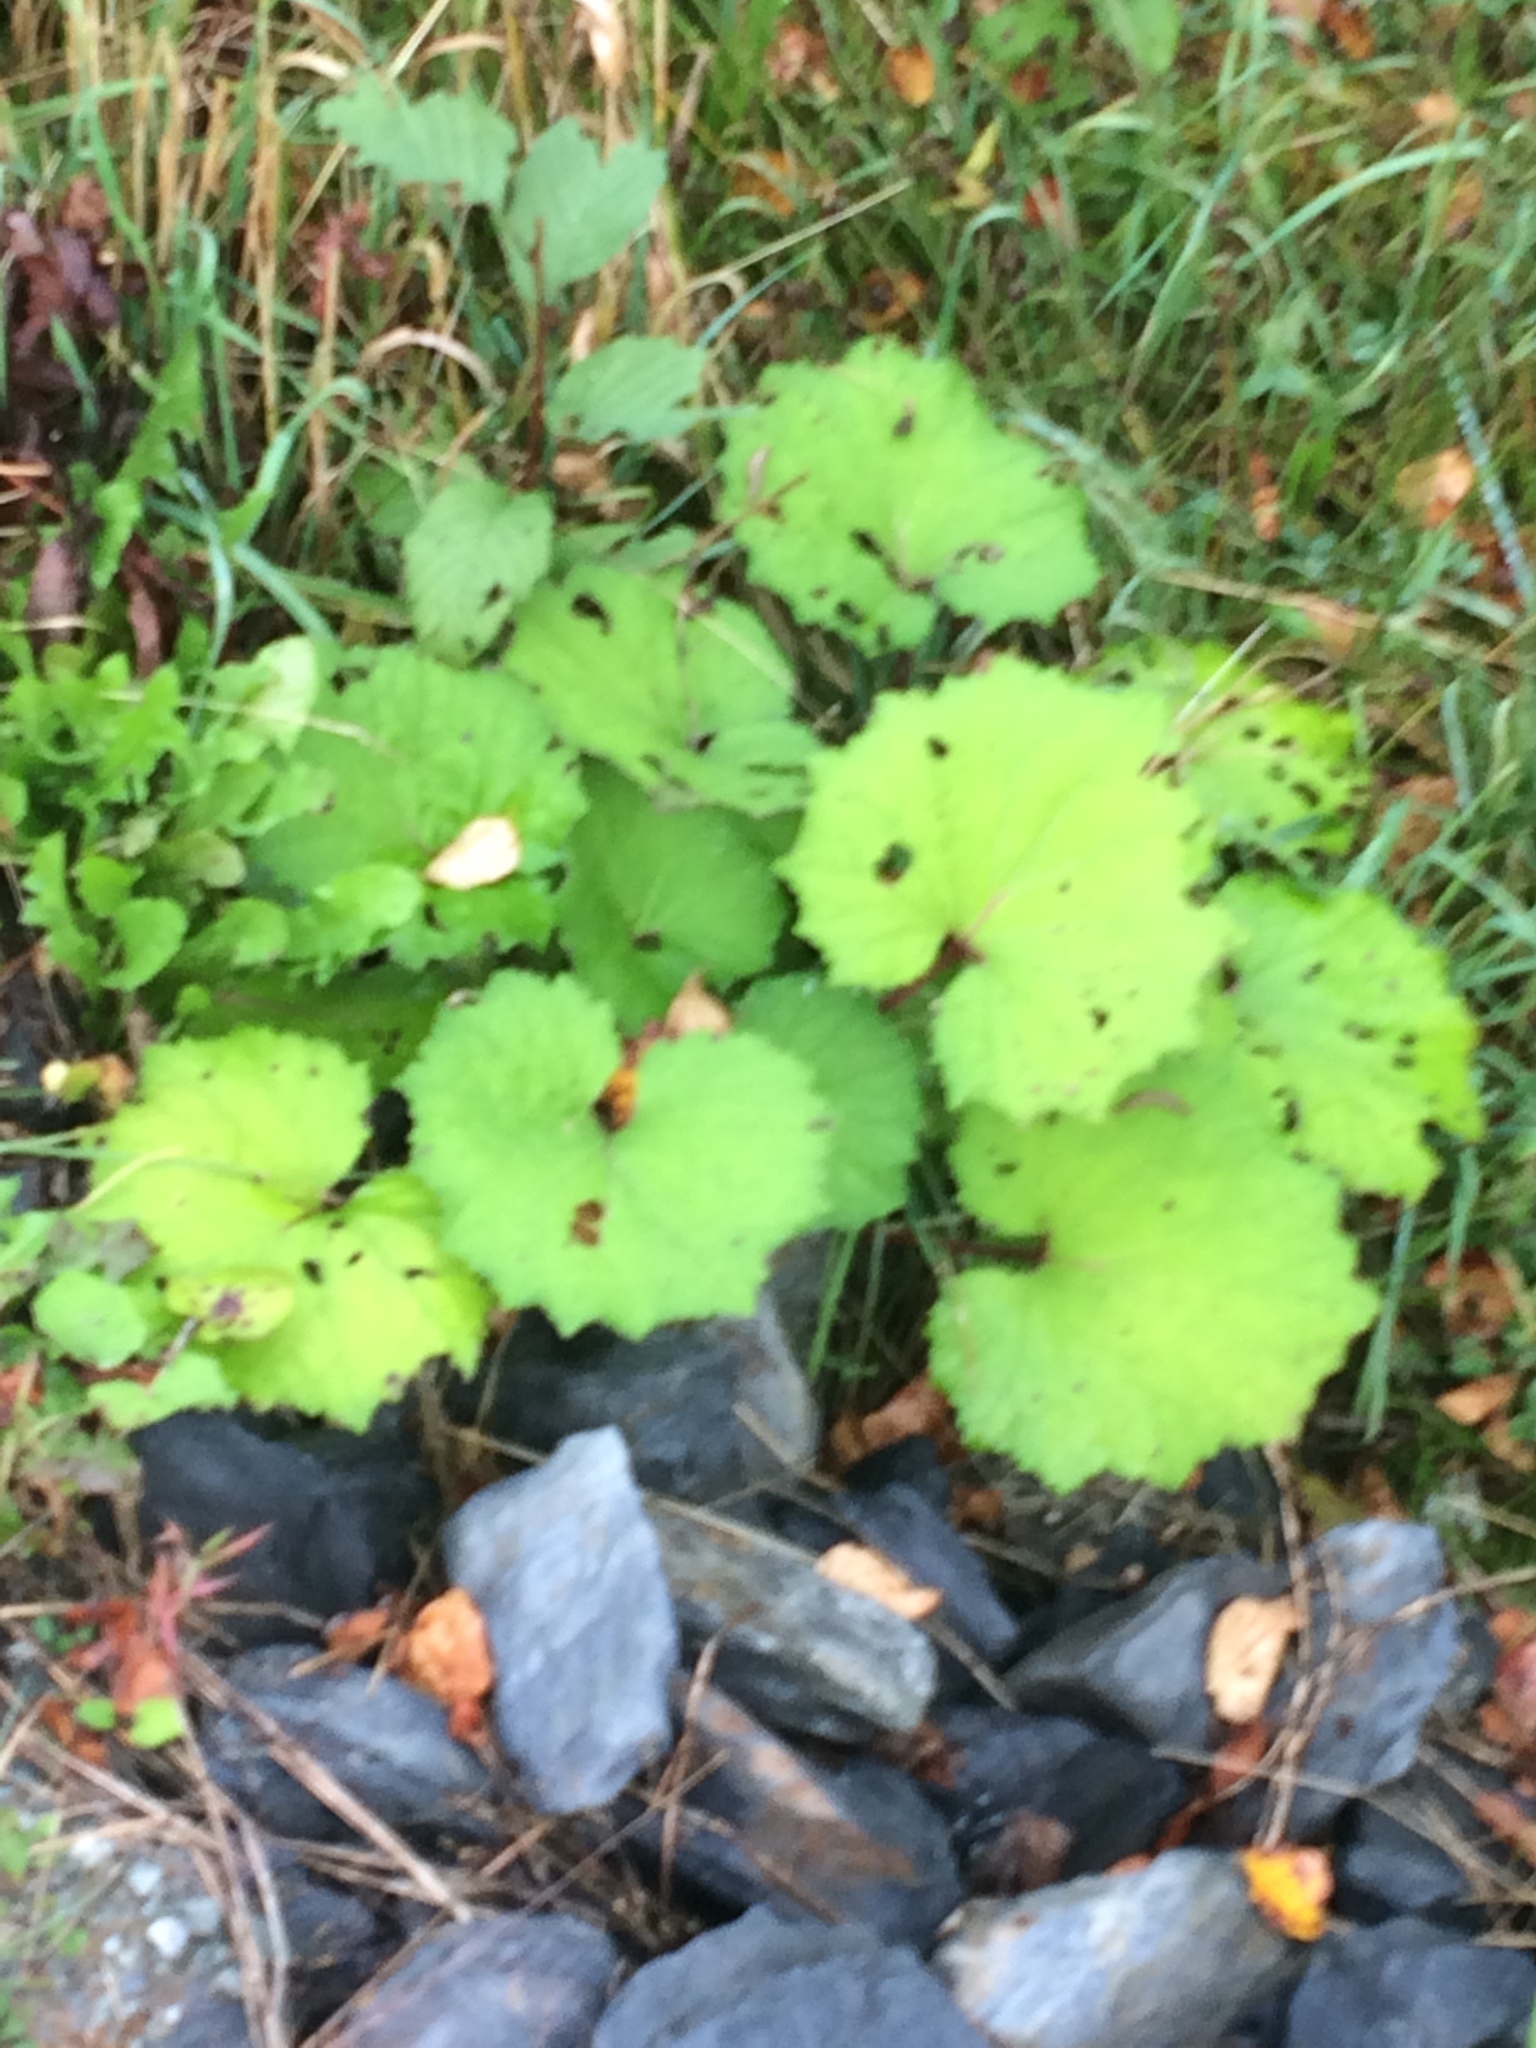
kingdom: Plantae
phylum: Tracheophyta
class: Magnoliopsida
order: Asterales
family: Asteraceae
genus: Tussilago
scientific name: Tussilago farfara
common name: Coltsfoot
